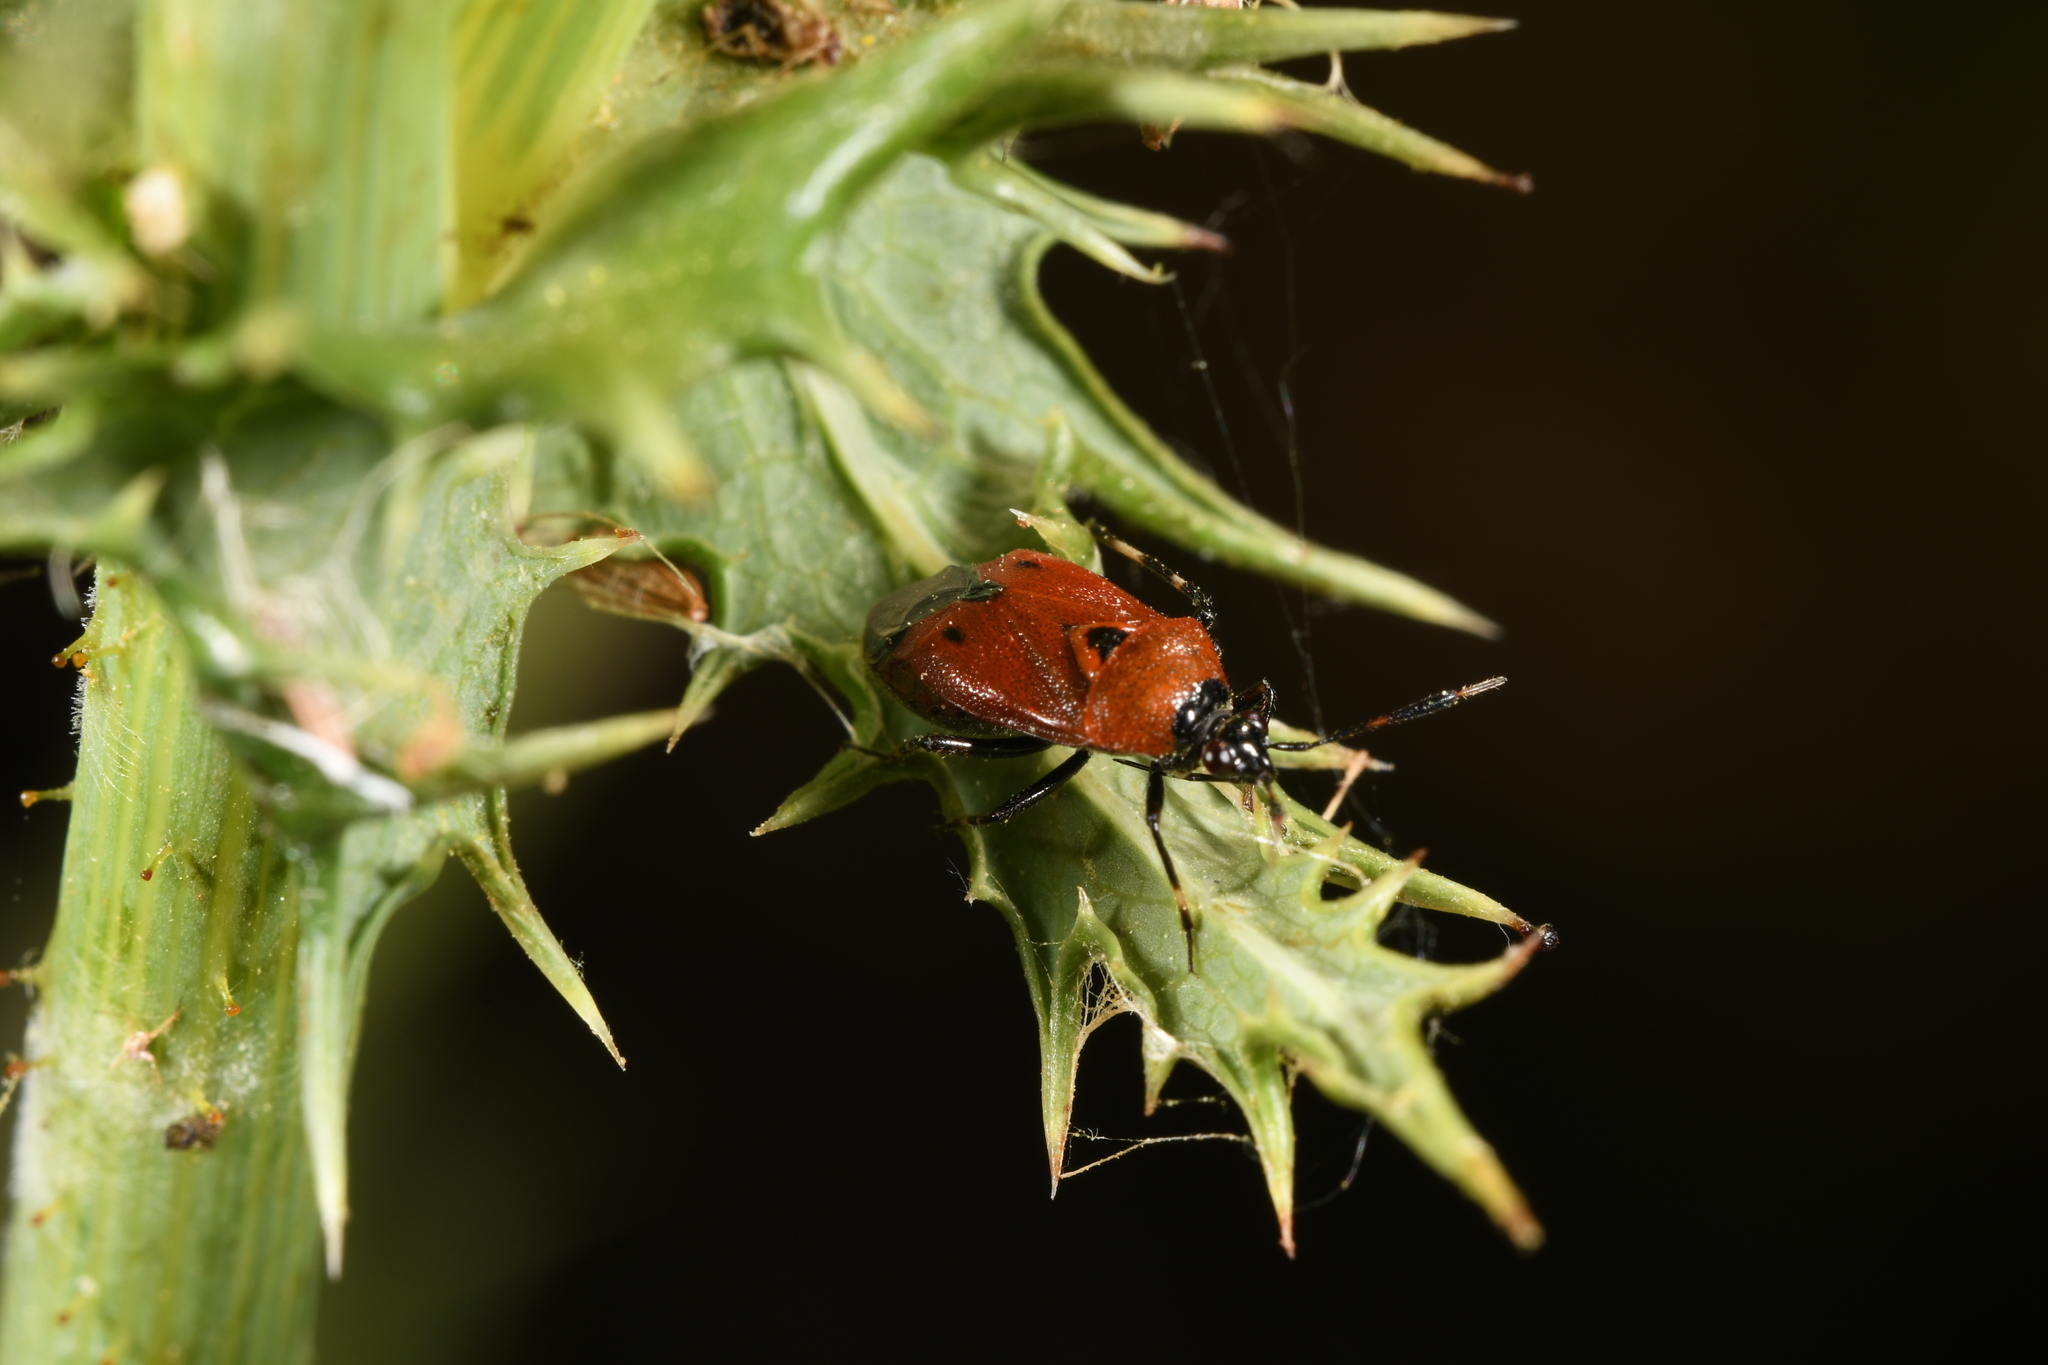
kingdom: Animalia
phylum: Arthropoda
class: Insecta
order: Hemiptera
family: Miridae
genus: Deraeocoris
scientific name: Deraeocoris punctum
